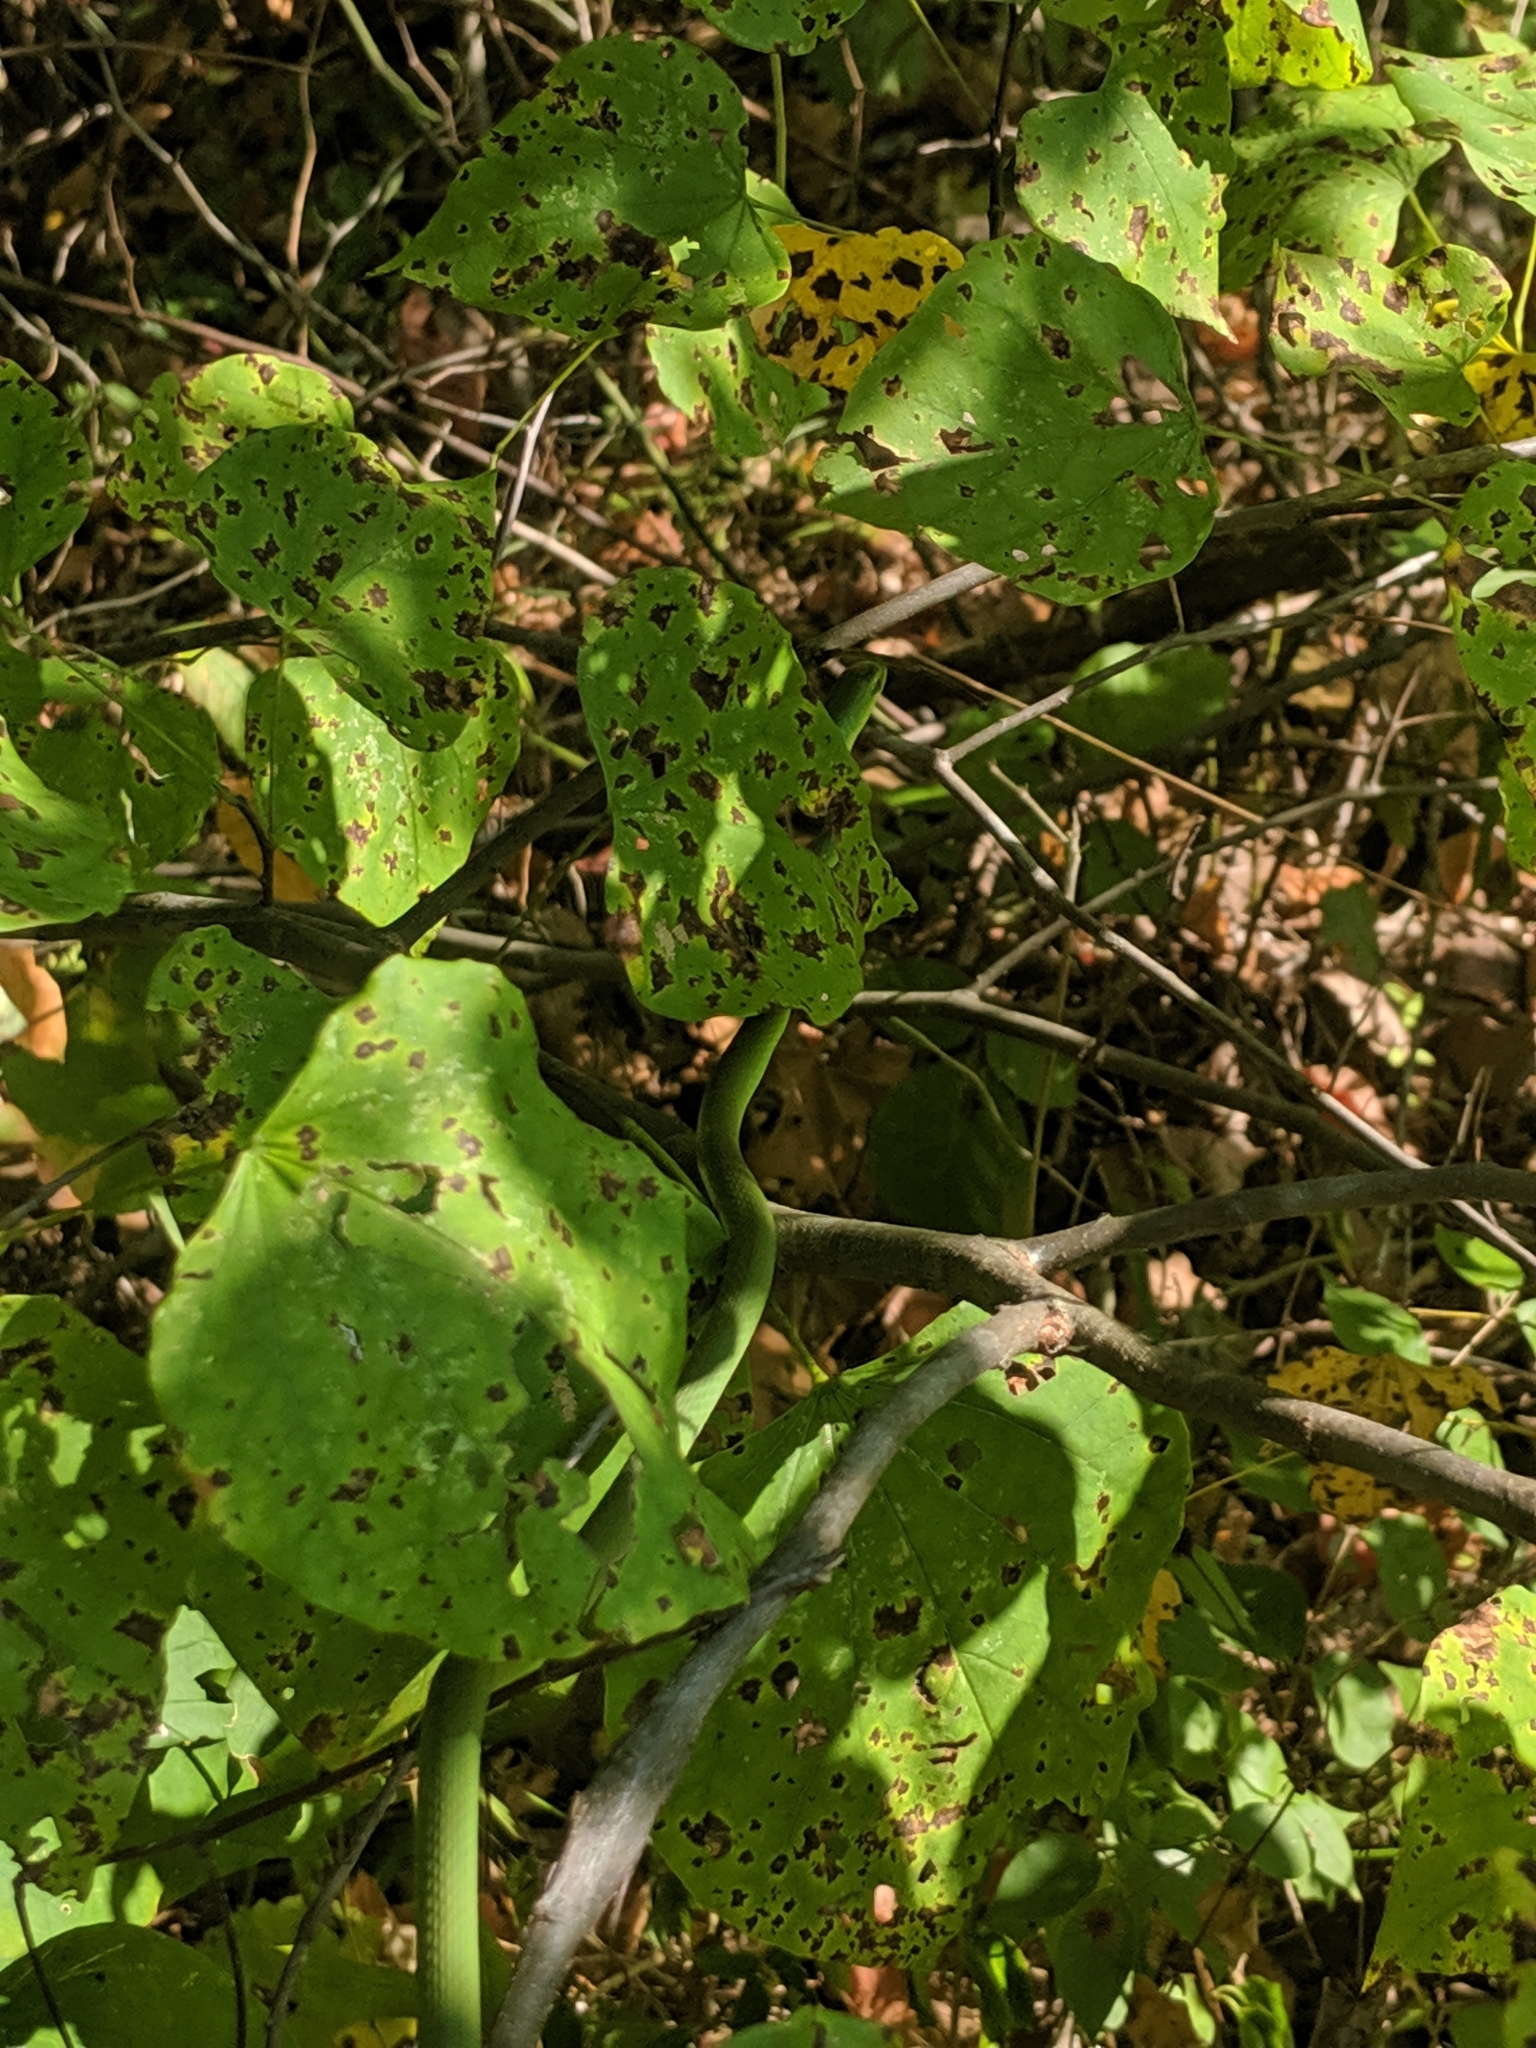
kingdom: Animalia
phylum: Chordata
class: Squamata
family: Colubridae
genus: Opheodrys
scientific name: Opheodrys aestivus
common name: Rough greensnake
